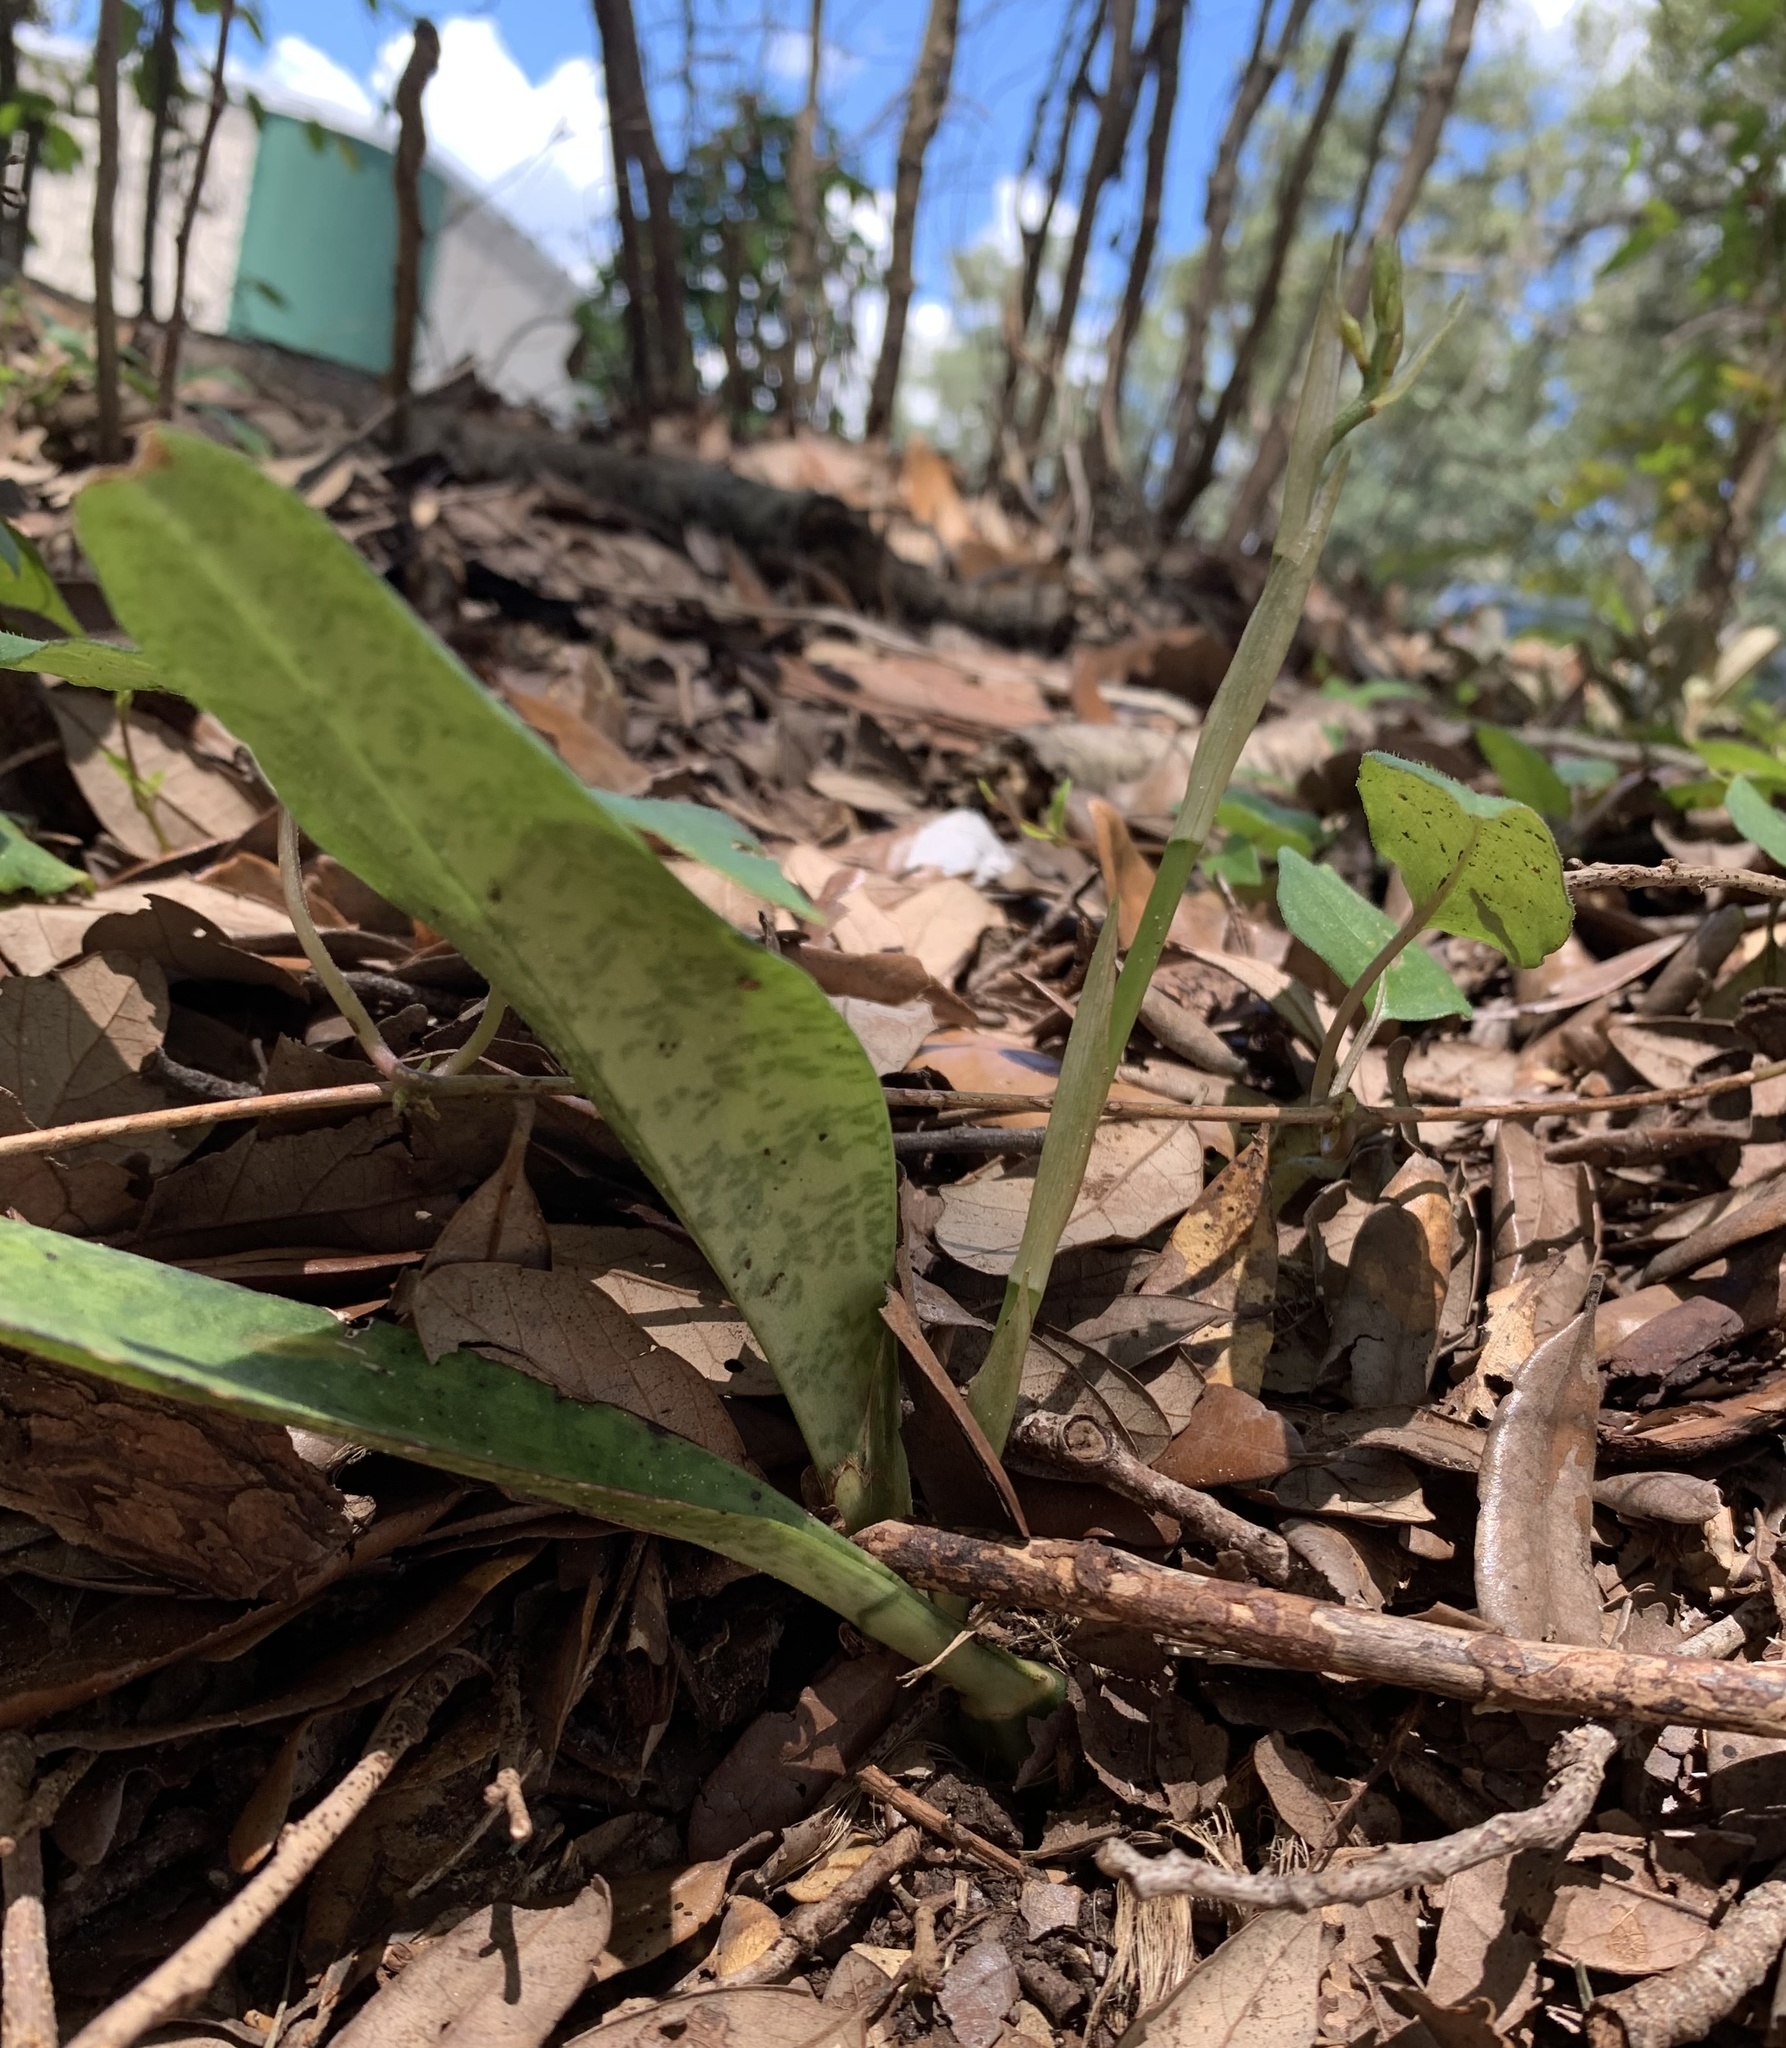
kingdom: Plantae
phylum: Tracheophyta
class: Liliopsida
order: Asparagales
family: Orchidaceae
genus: Eulophia
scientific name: Eulophia maculata
